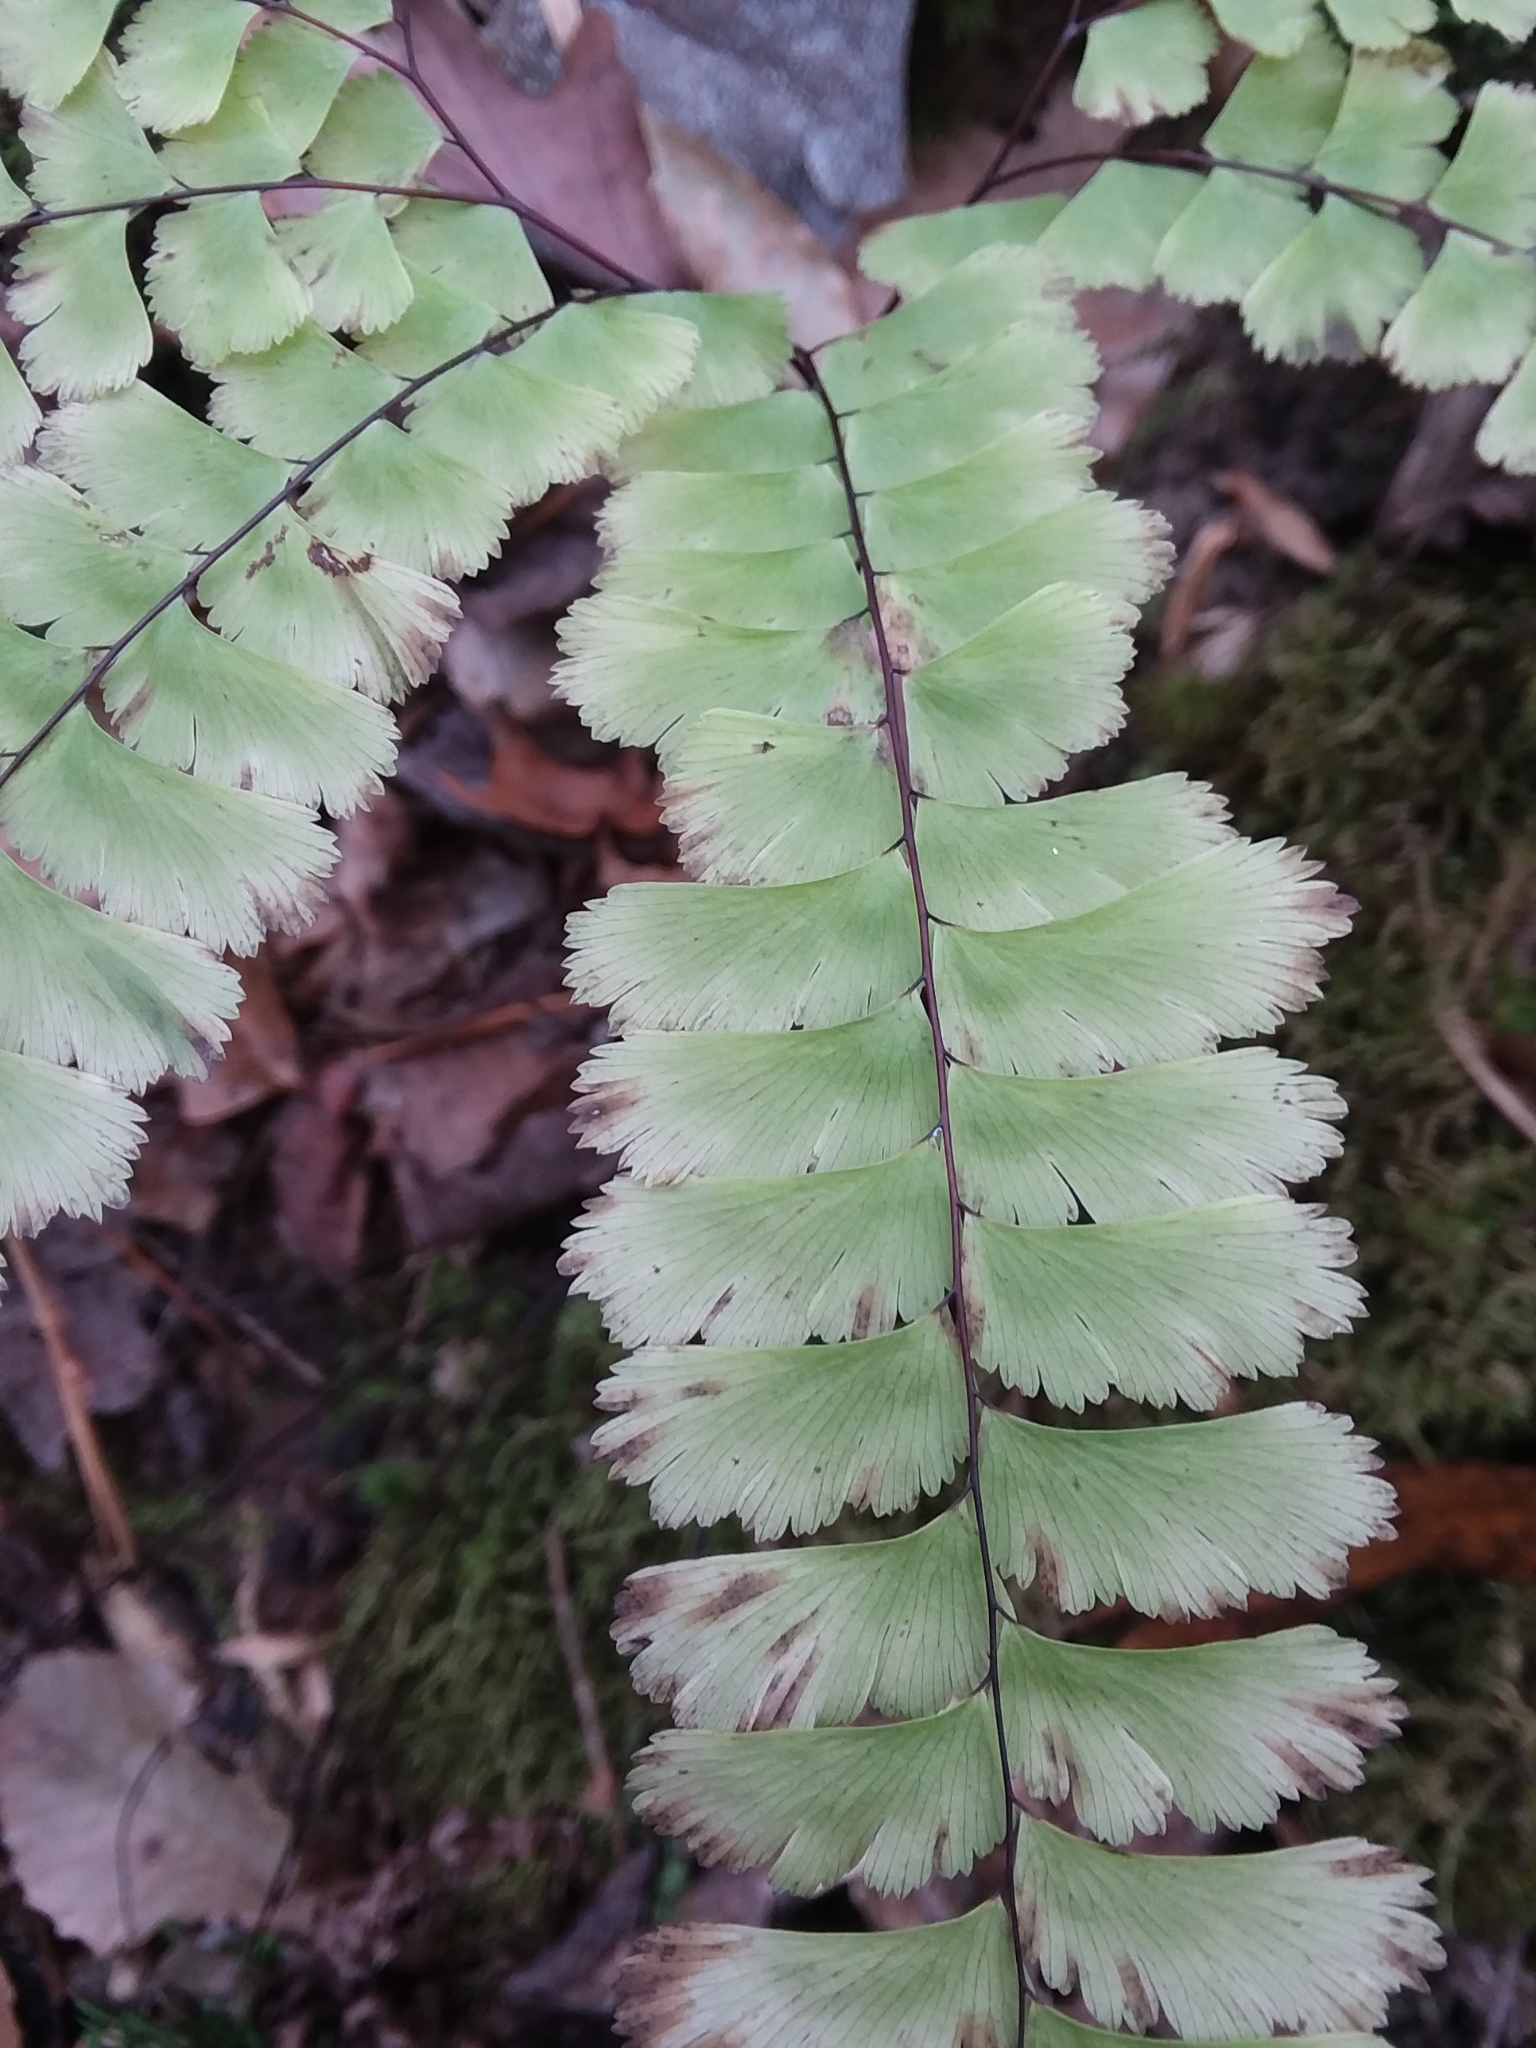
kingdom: Plantae
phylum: Tracheophyta
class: Polypodiopsida
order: Polypodiales
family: Pteridaceae
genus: Adiantum
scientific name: Adiantum pedatum
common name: Five-finger fern
